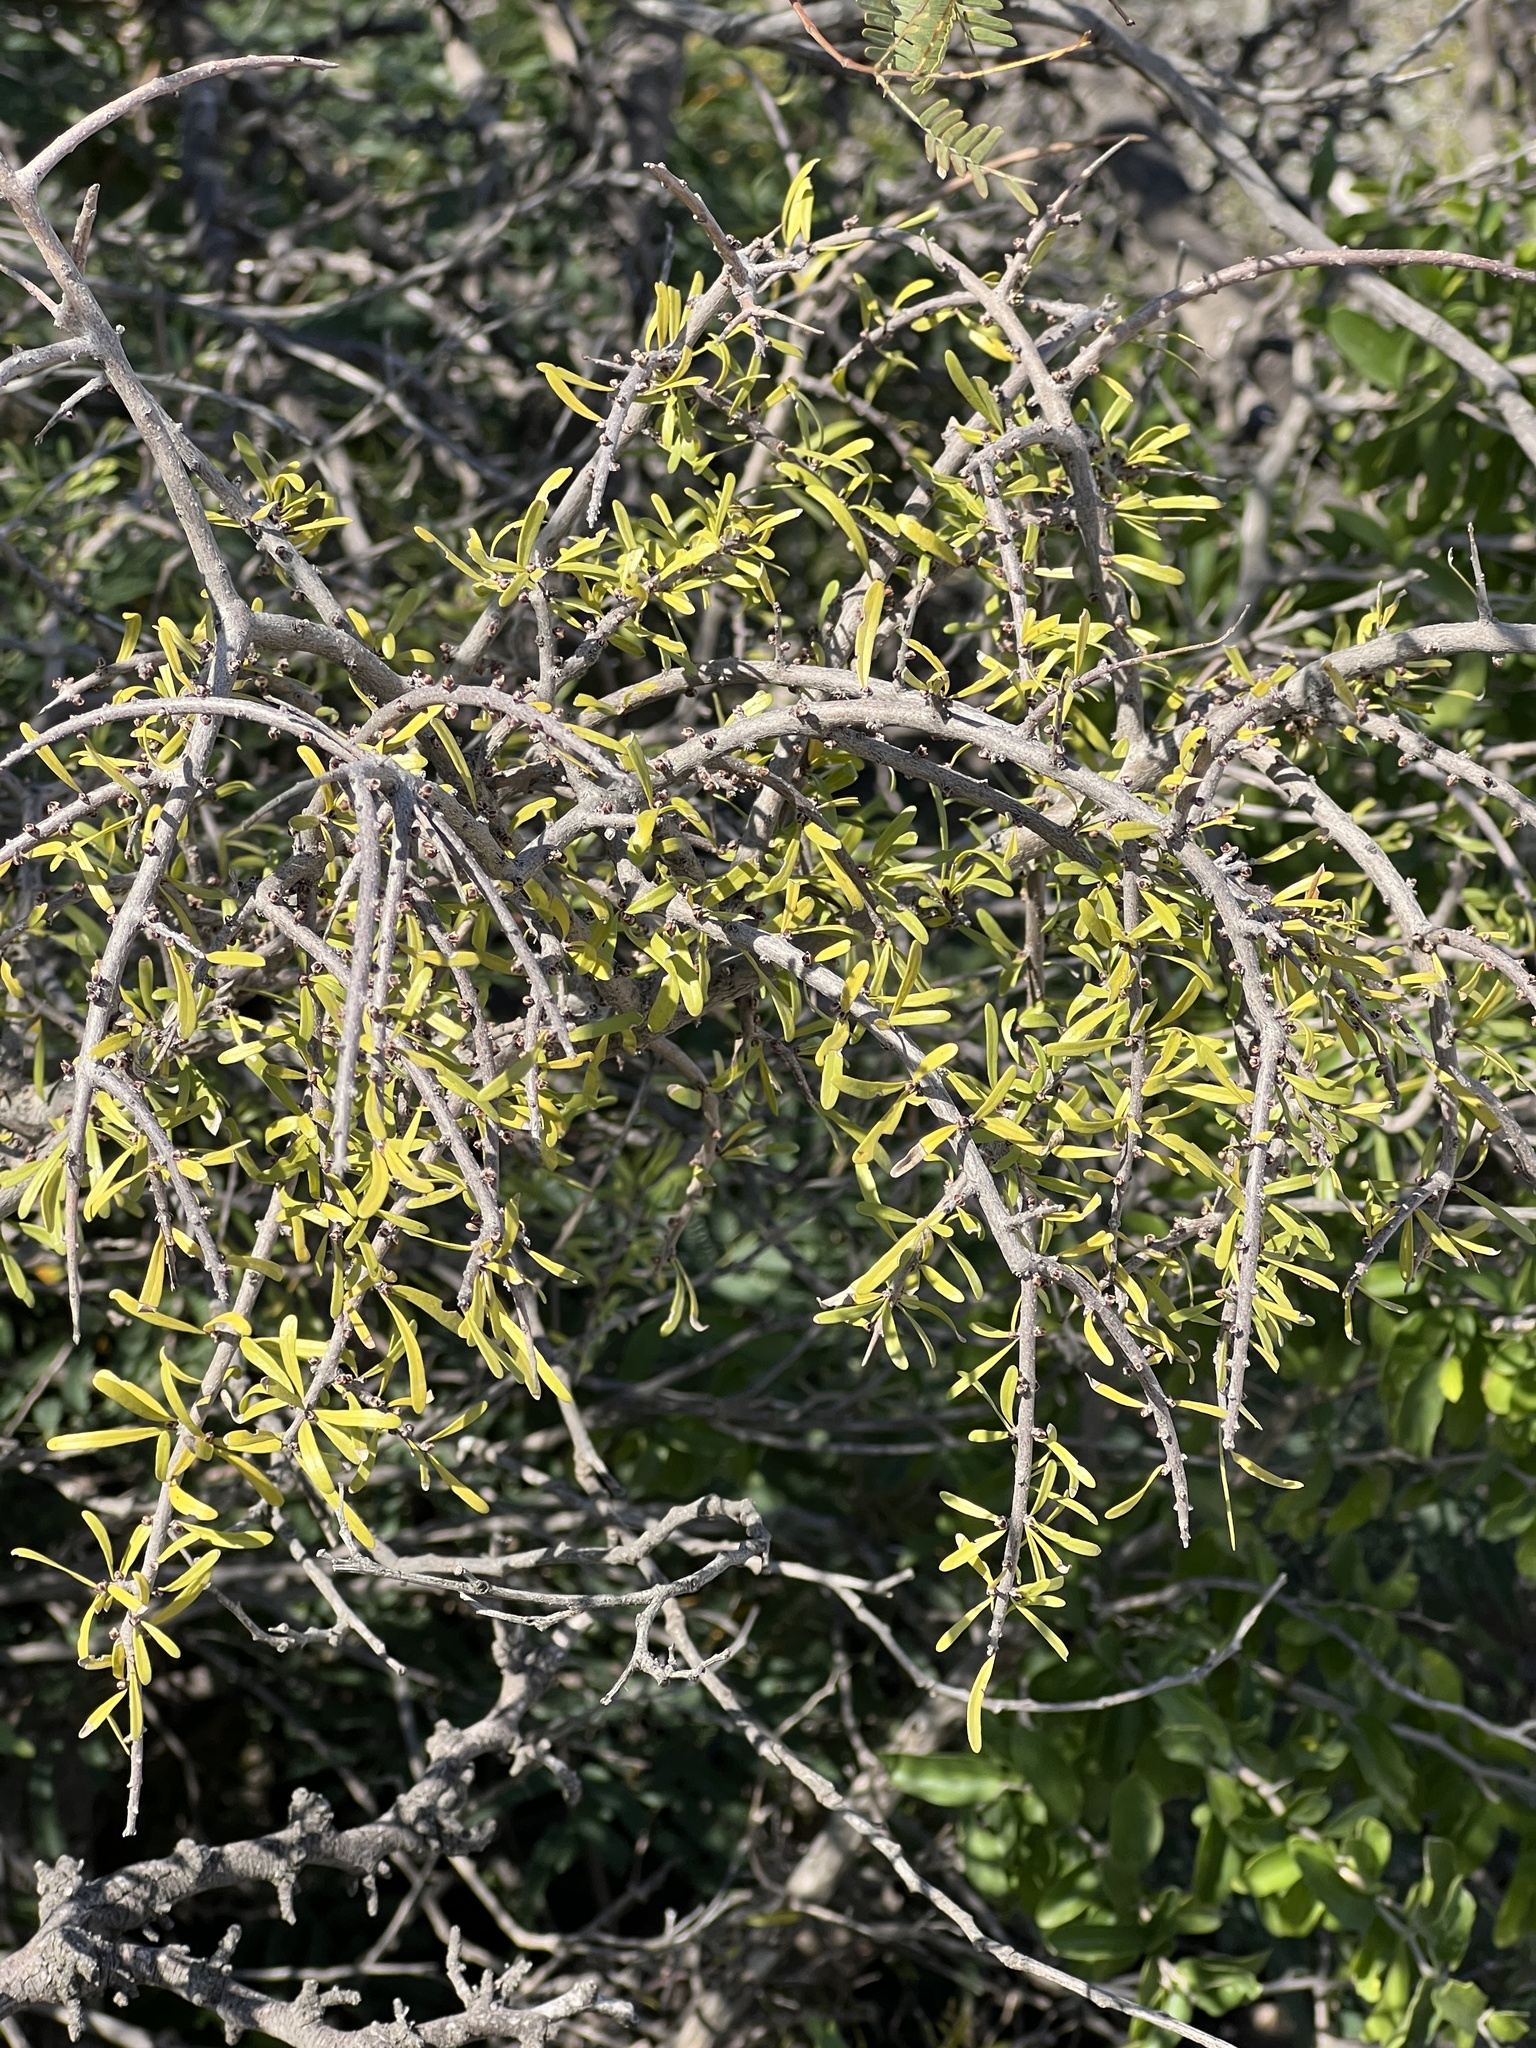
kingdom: Plantae
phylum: Tracheophyta
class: Magnoliopsida
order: Lamiales
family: Oleaceae
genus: Forestiera
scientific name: Forestiera angustifolia
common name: Elbowbush
